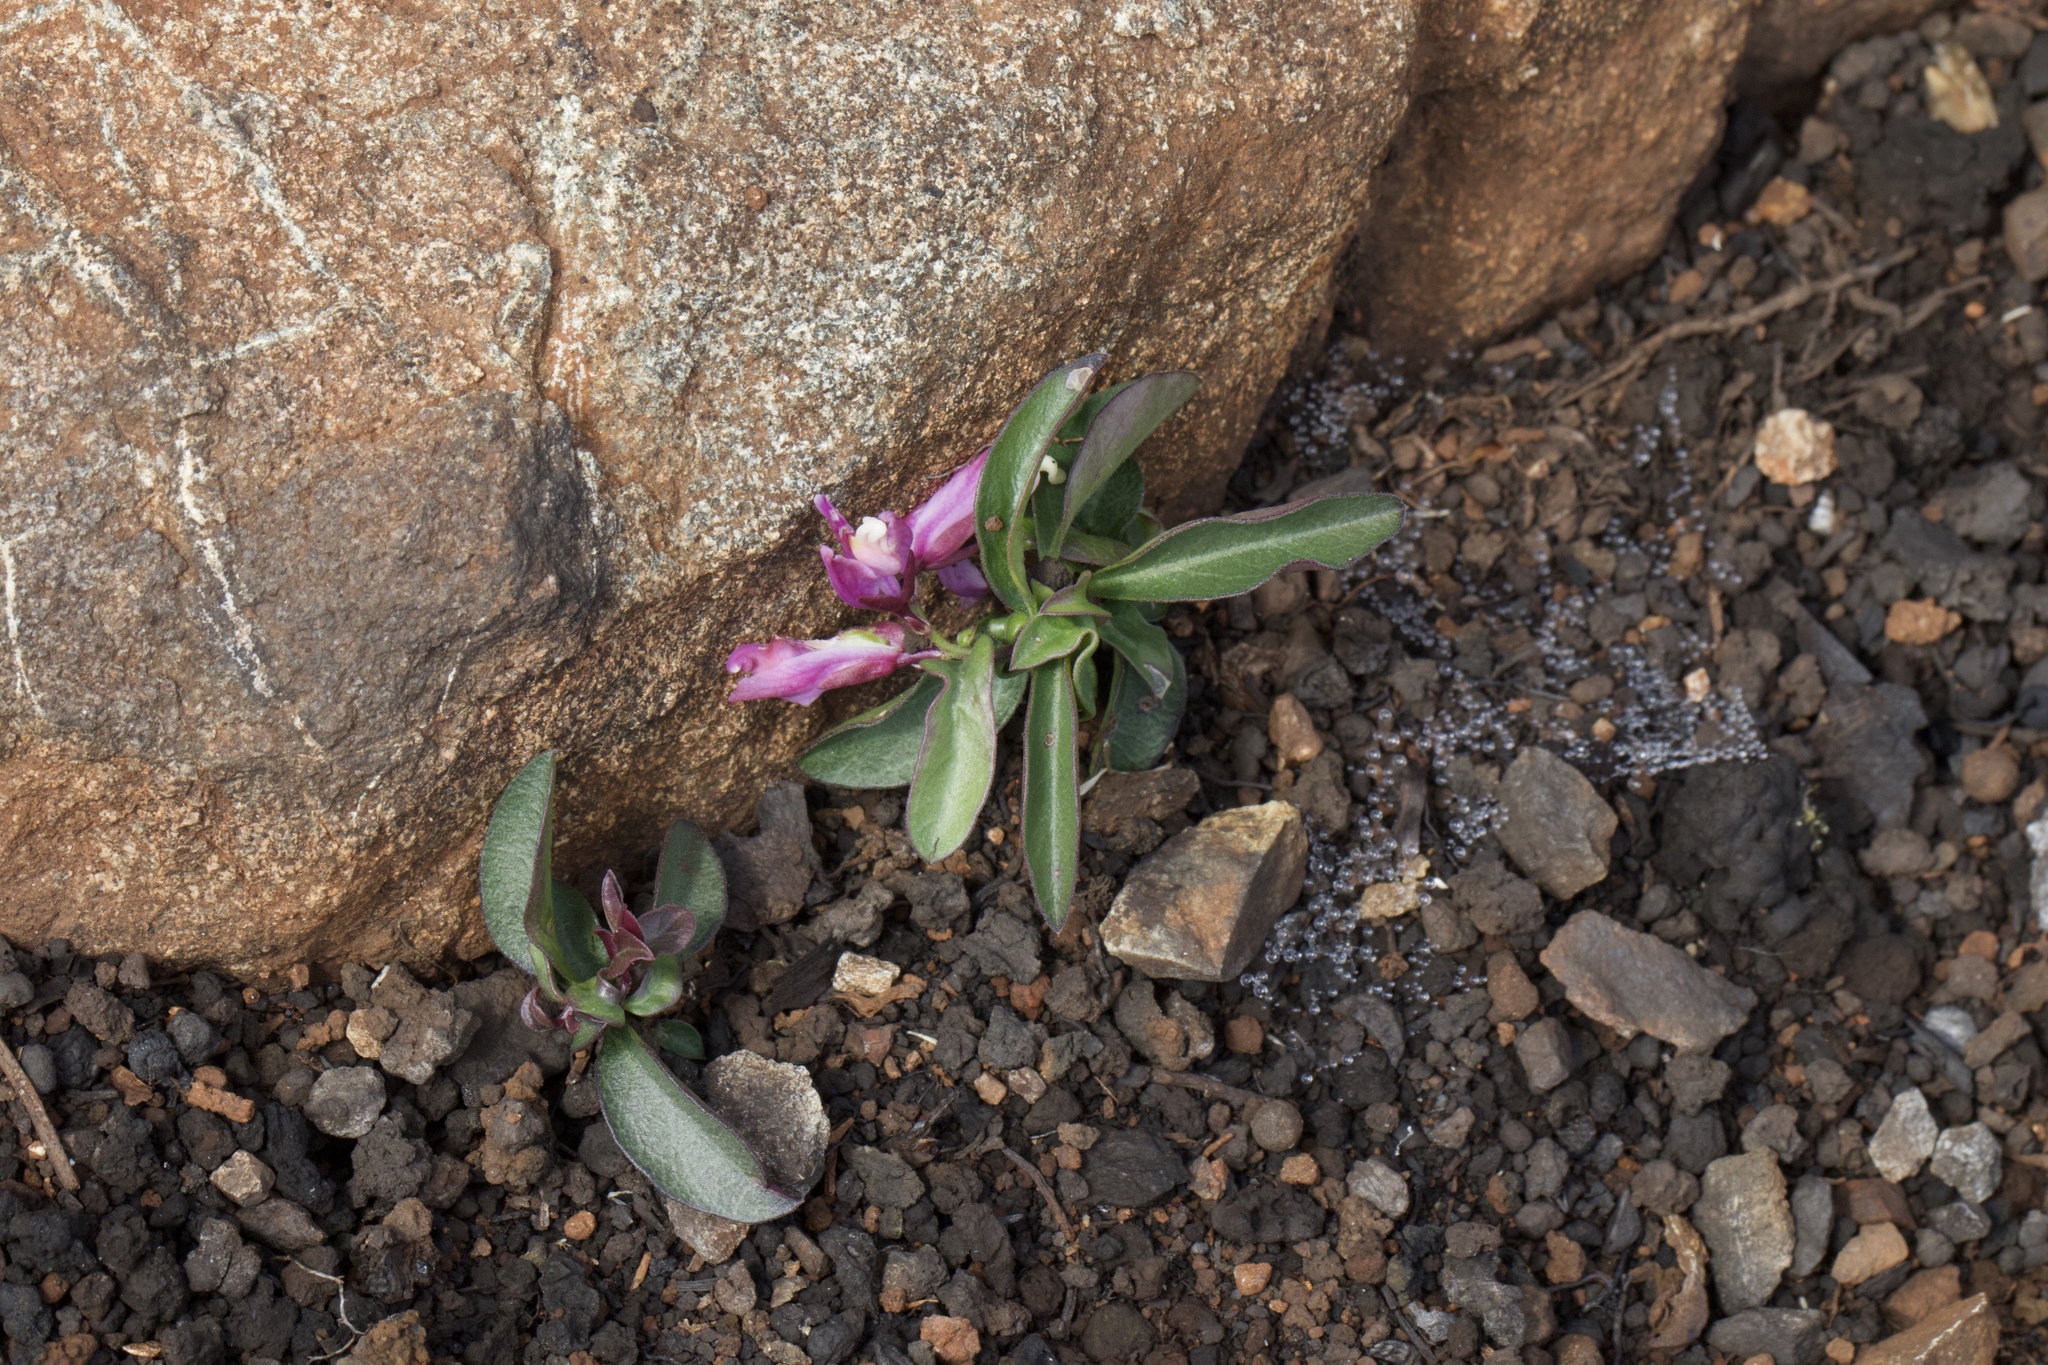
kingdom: Plantae
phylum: Tracheophyta
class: Magnoliopsida
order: Fabales
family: Polygalaceae
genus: Rhinotropis
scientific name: Rhinotropis californica
